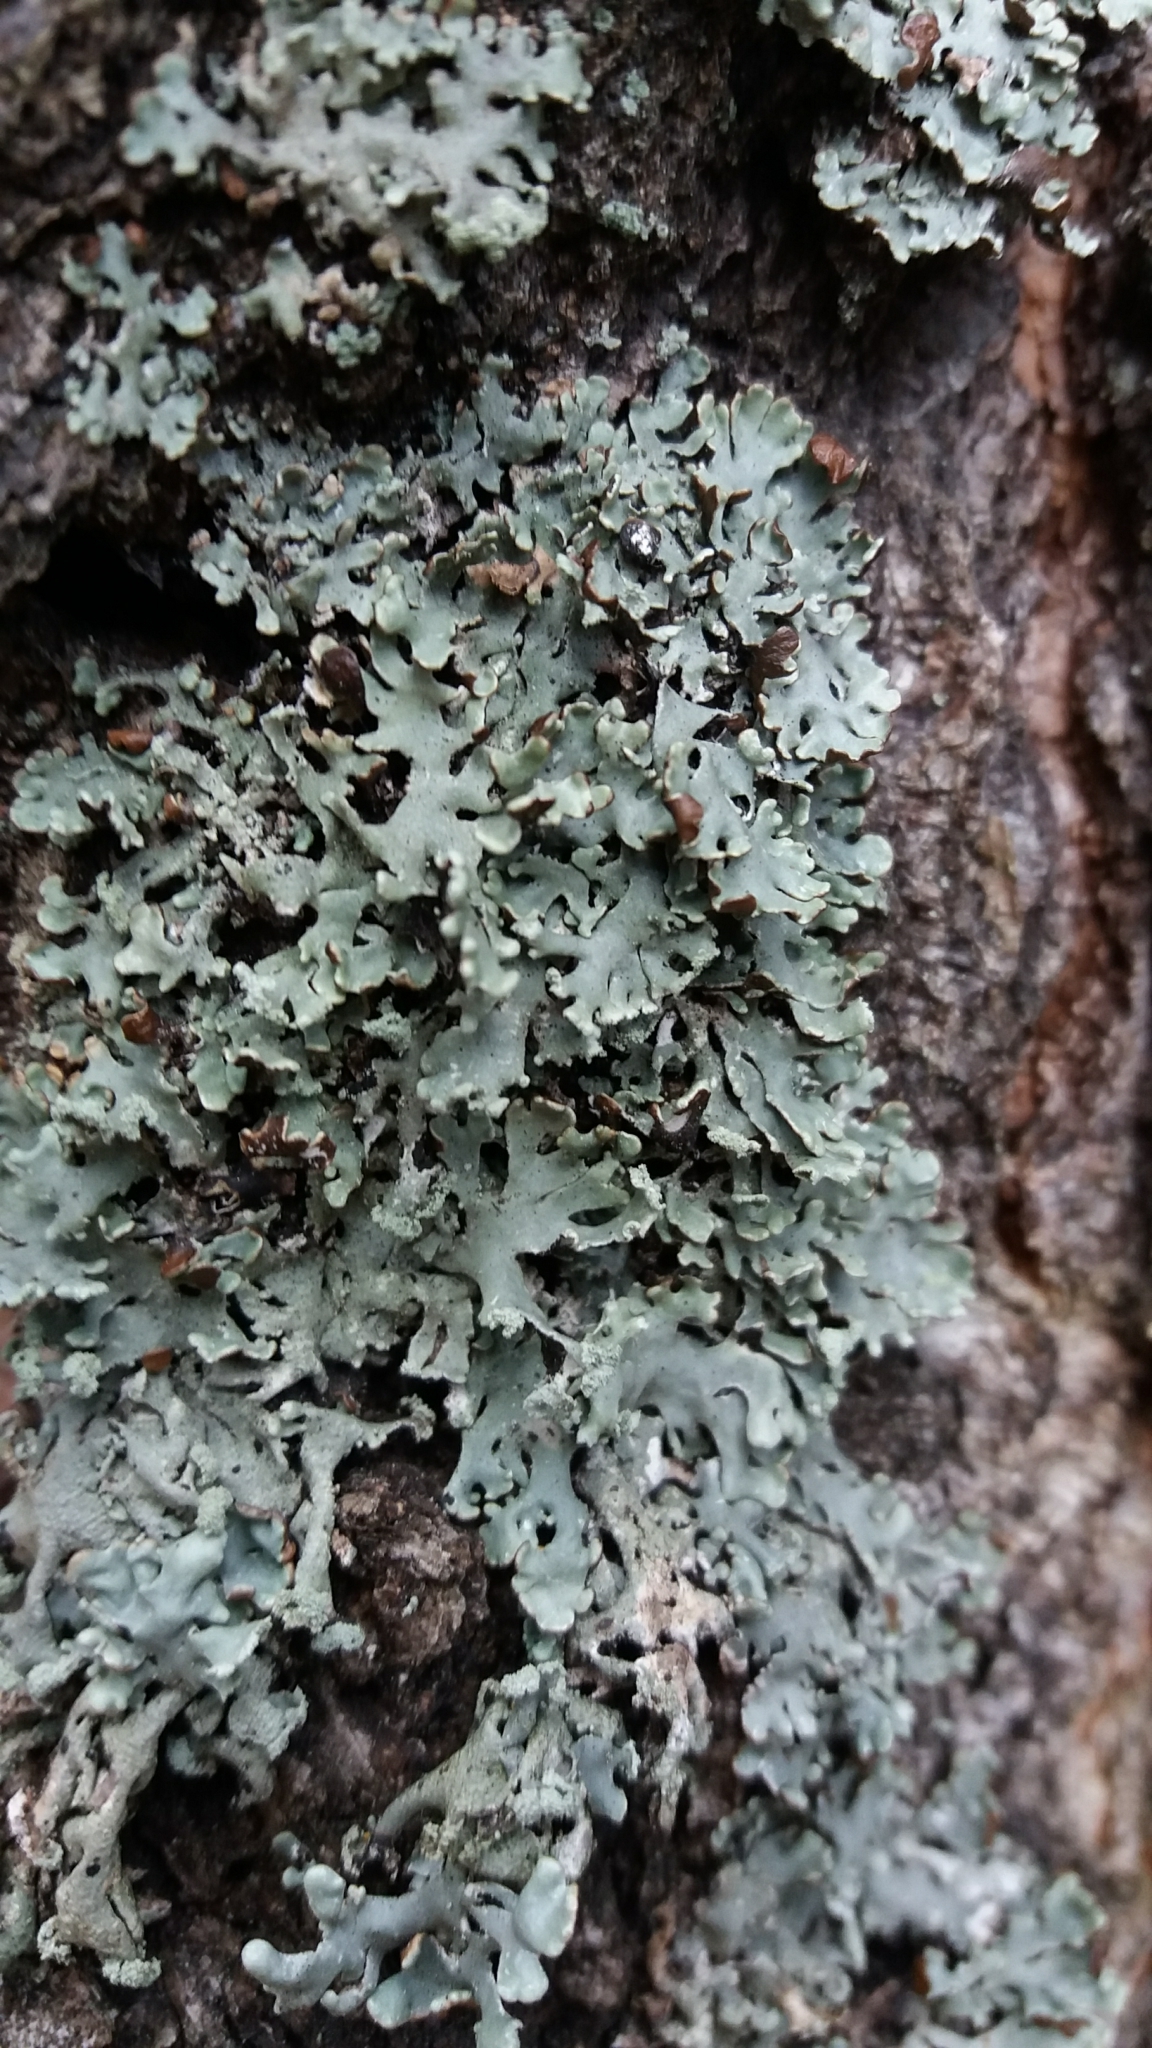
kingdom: Fungi
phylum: Ascomycota
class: Lecanoromycetes
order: Lecanorales
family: Parmeliaceae
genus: Hypogymnia
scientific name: Hypogymnia physodes
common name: Dark crottle
